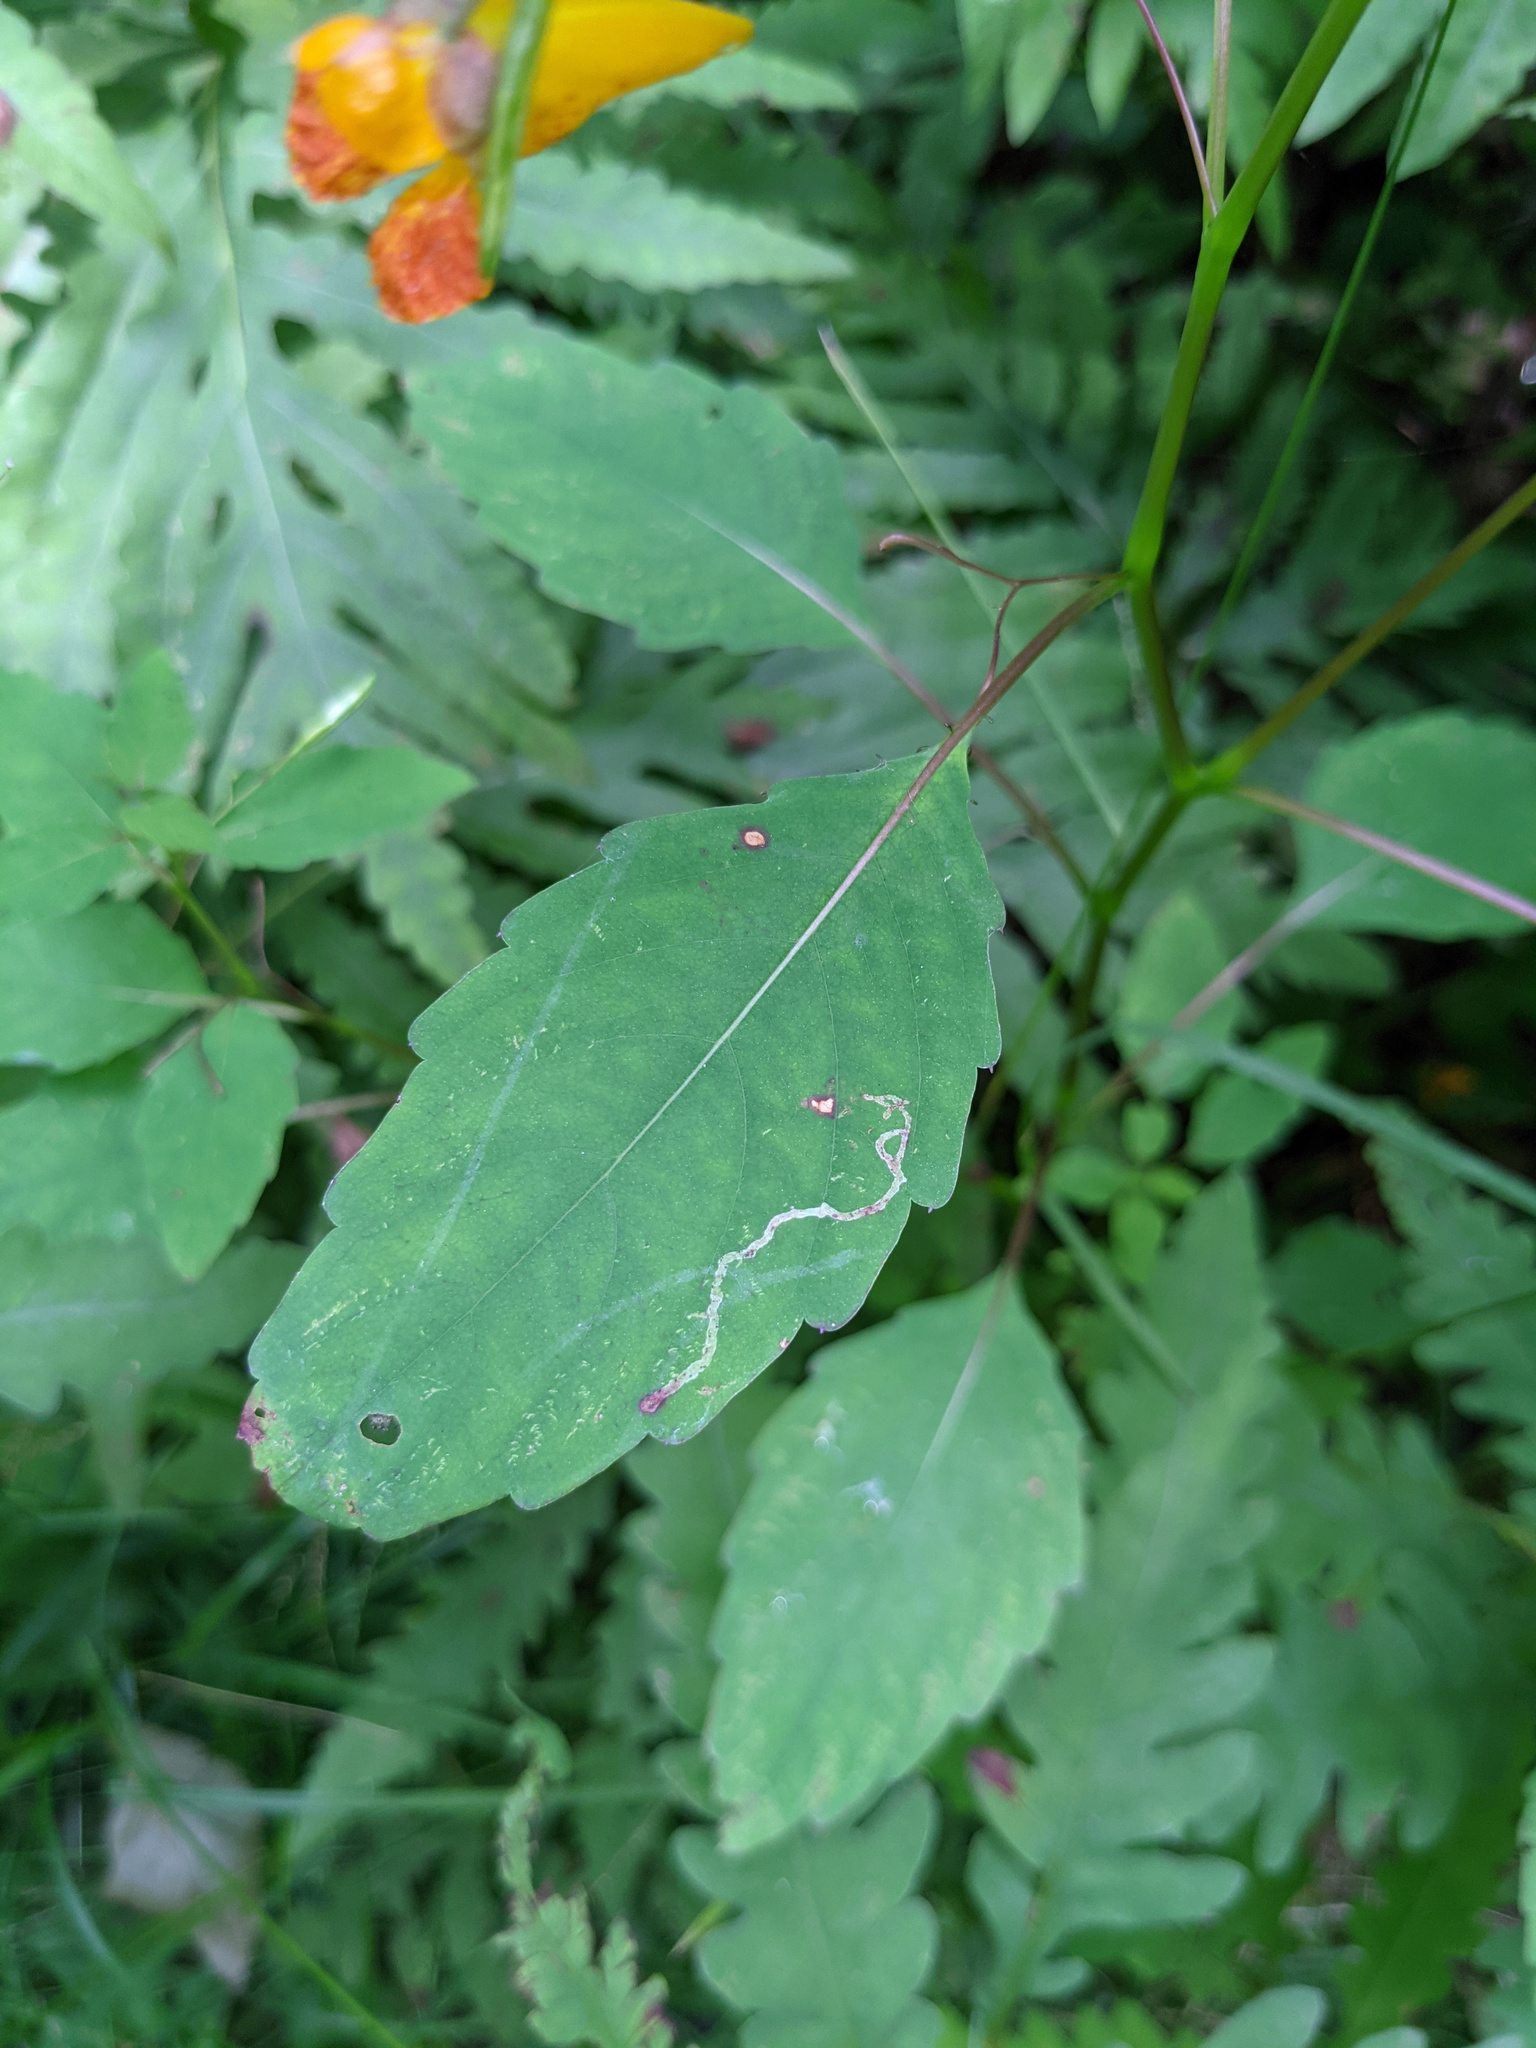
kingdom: Plantae
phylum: Tracheophyta
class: Magnoliopsida
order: Ericales
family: Balsaminaceae
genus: Impatiens
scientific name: Impatiens capensis
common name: Orange balsam
